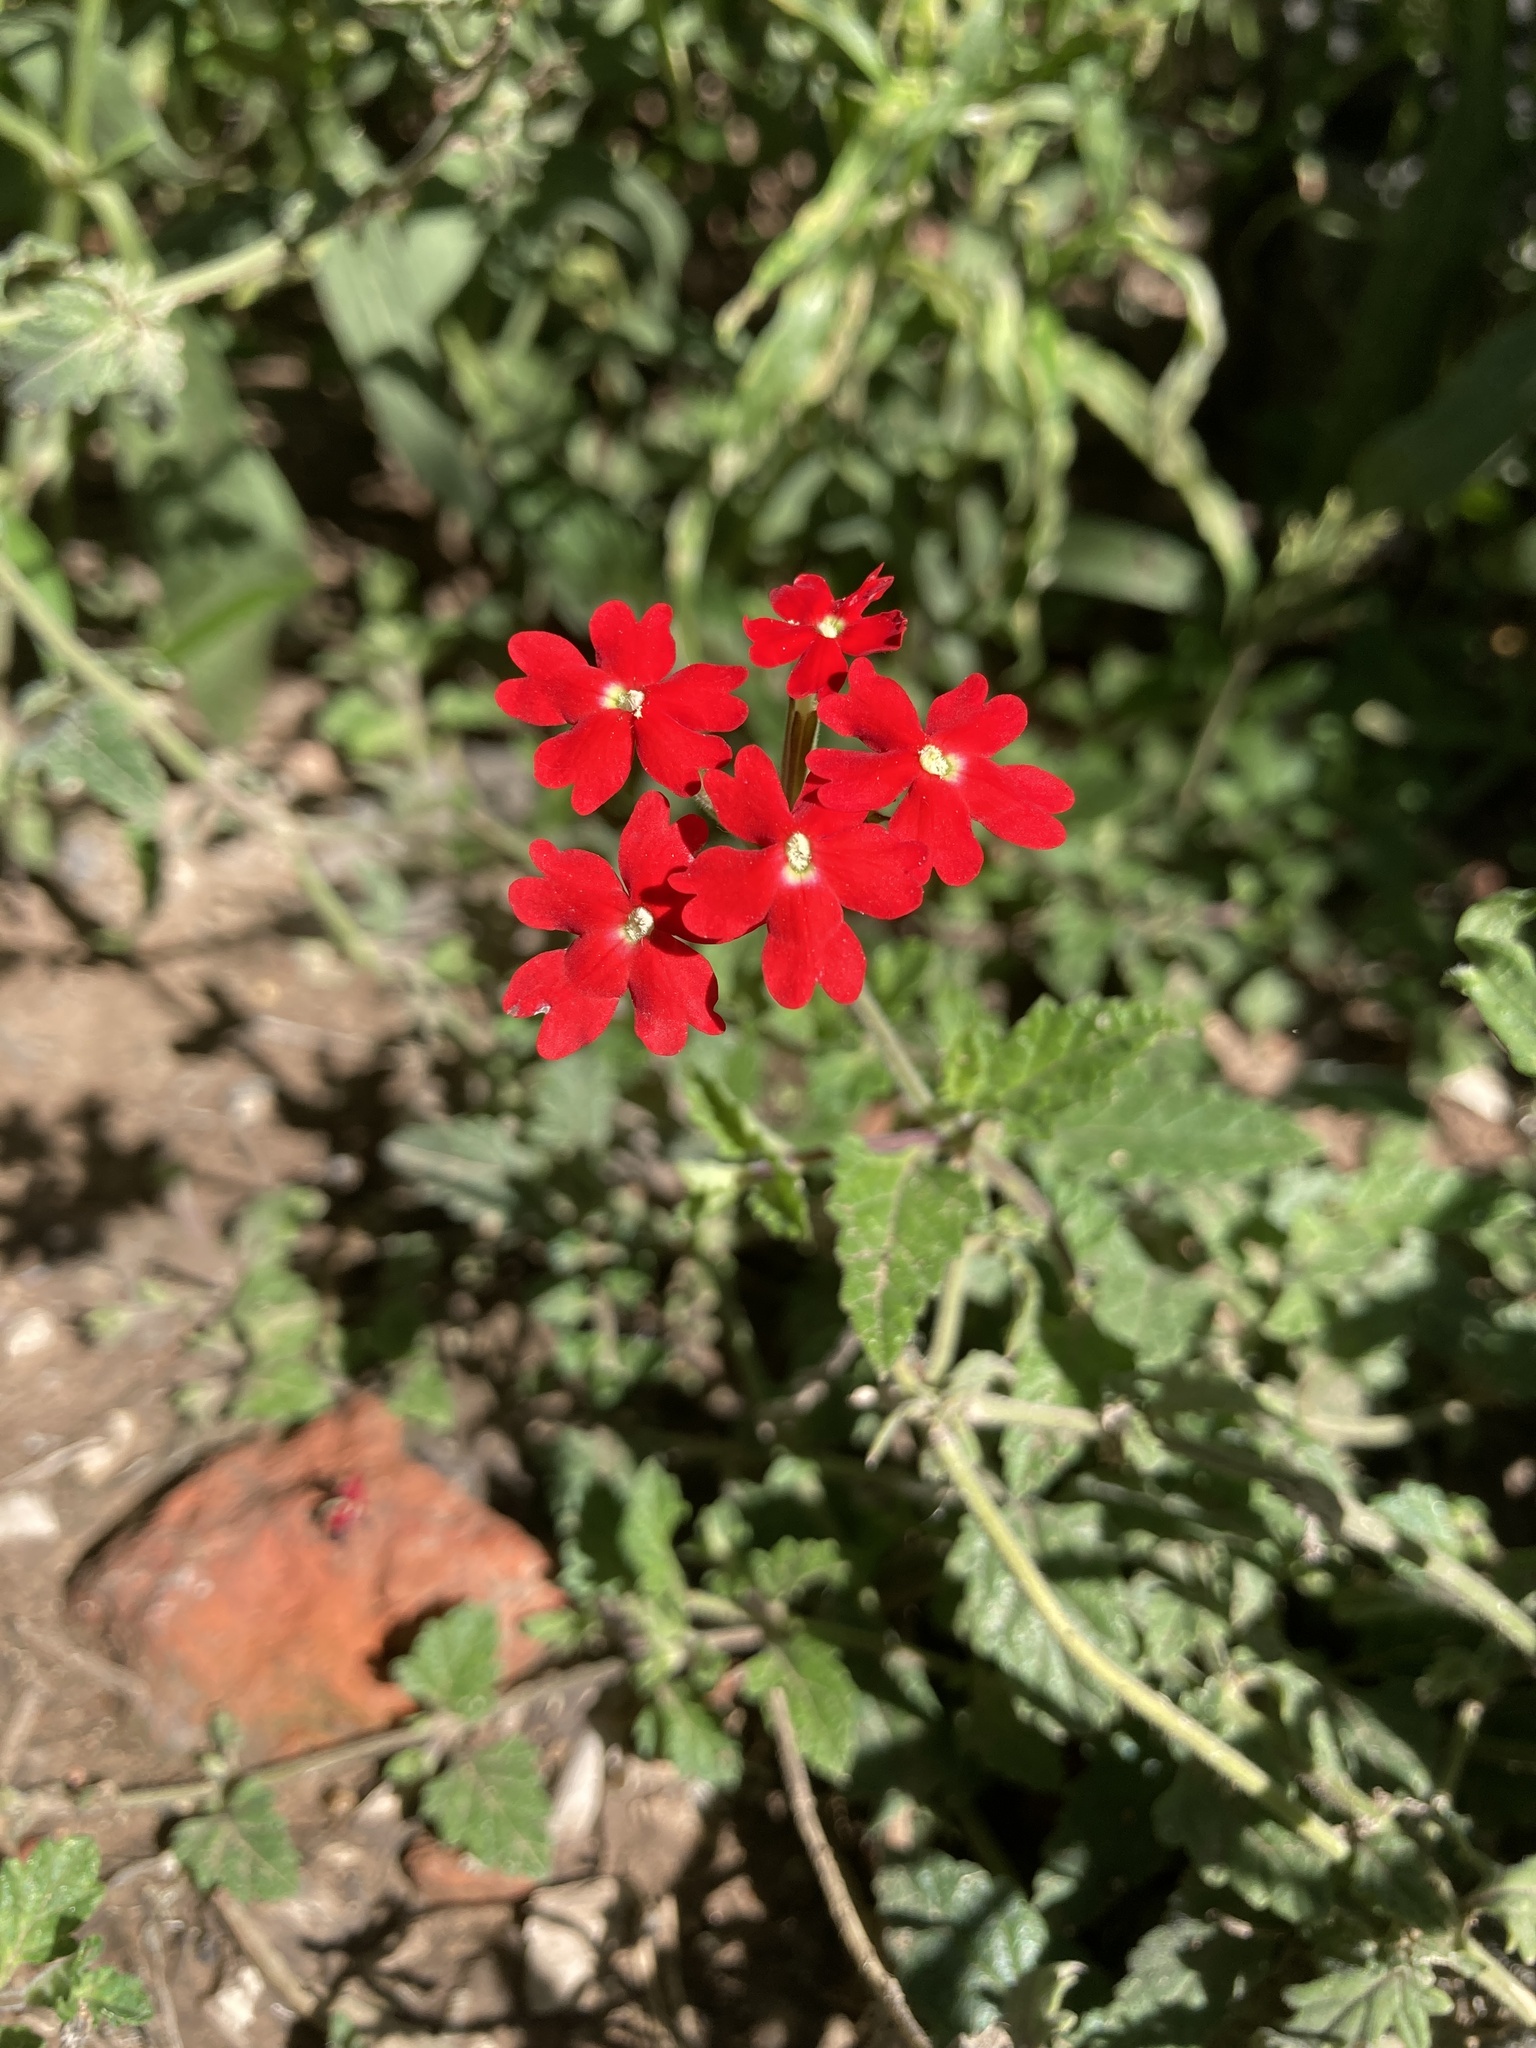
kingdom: Plantae
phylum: Tracheophyta
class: Magnoliopsida
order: Lamiales
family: Verbenaceae
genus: Verbena
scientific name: Verbena tweedieana
